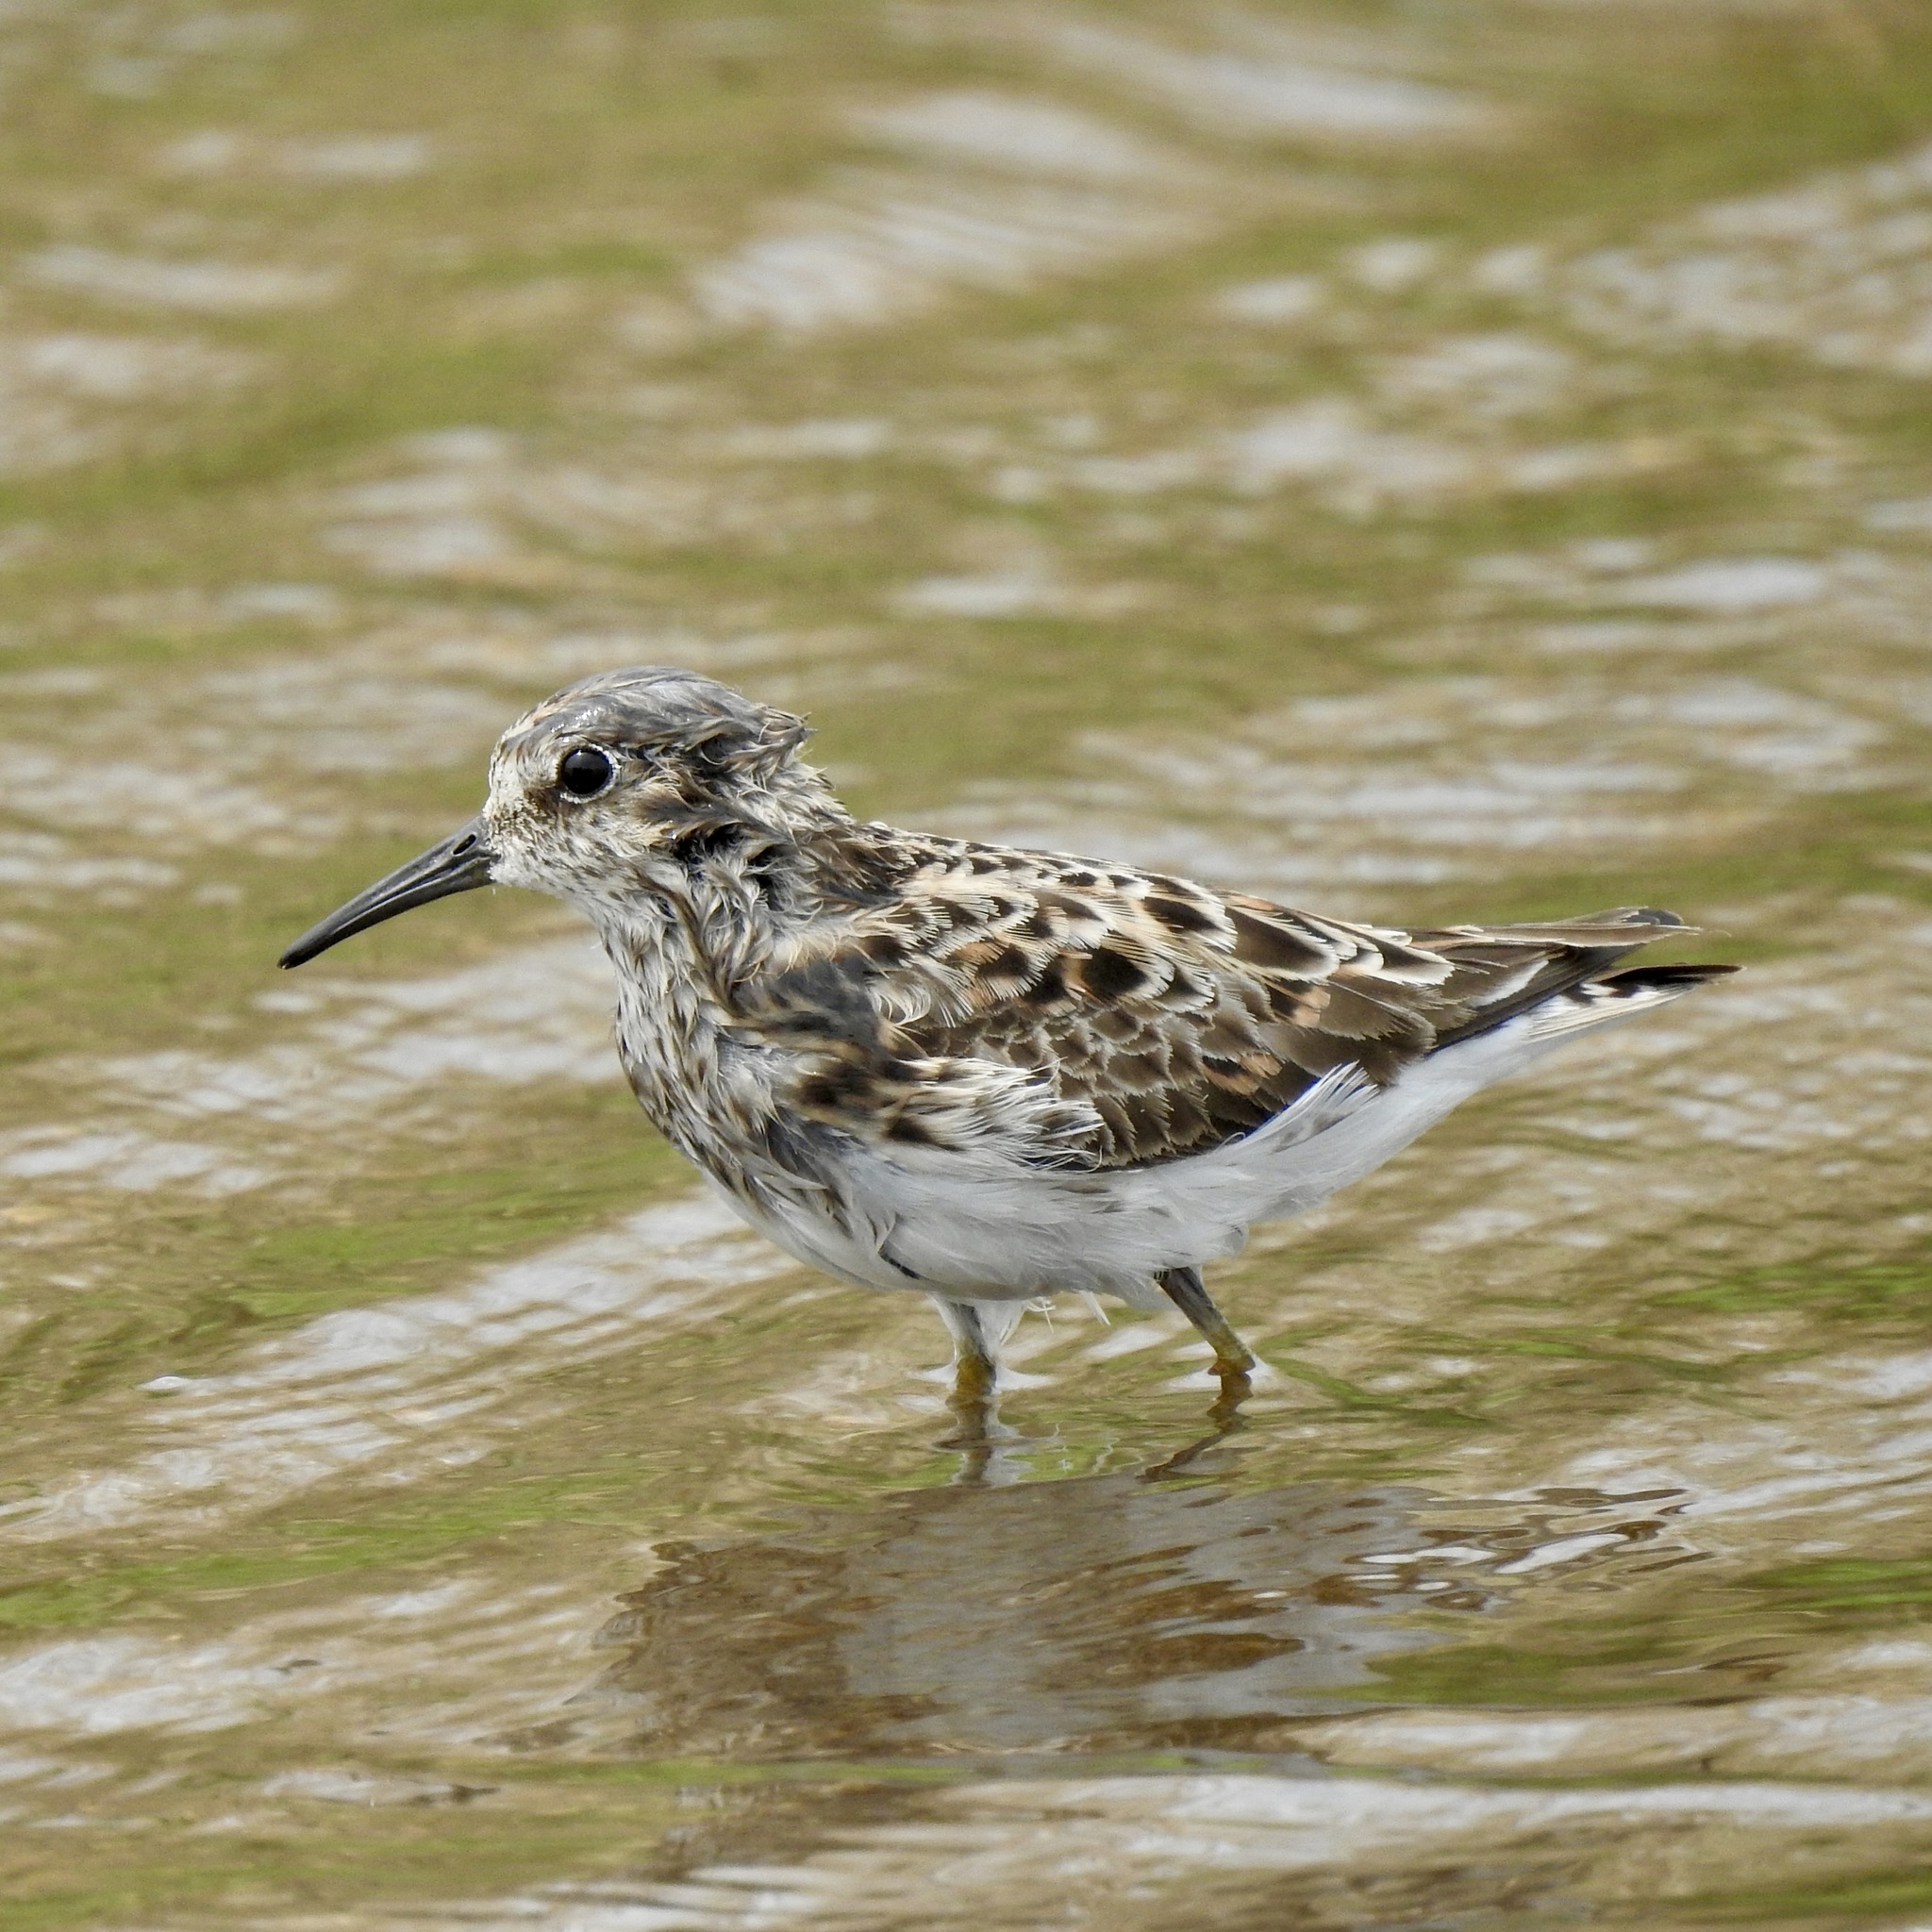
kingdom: Animalia
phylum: Chordata
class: Aves
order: Charadriiformes
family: Scolopacidae
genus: Calidris
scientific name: Calidris minutilla
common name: Least sandpiper
